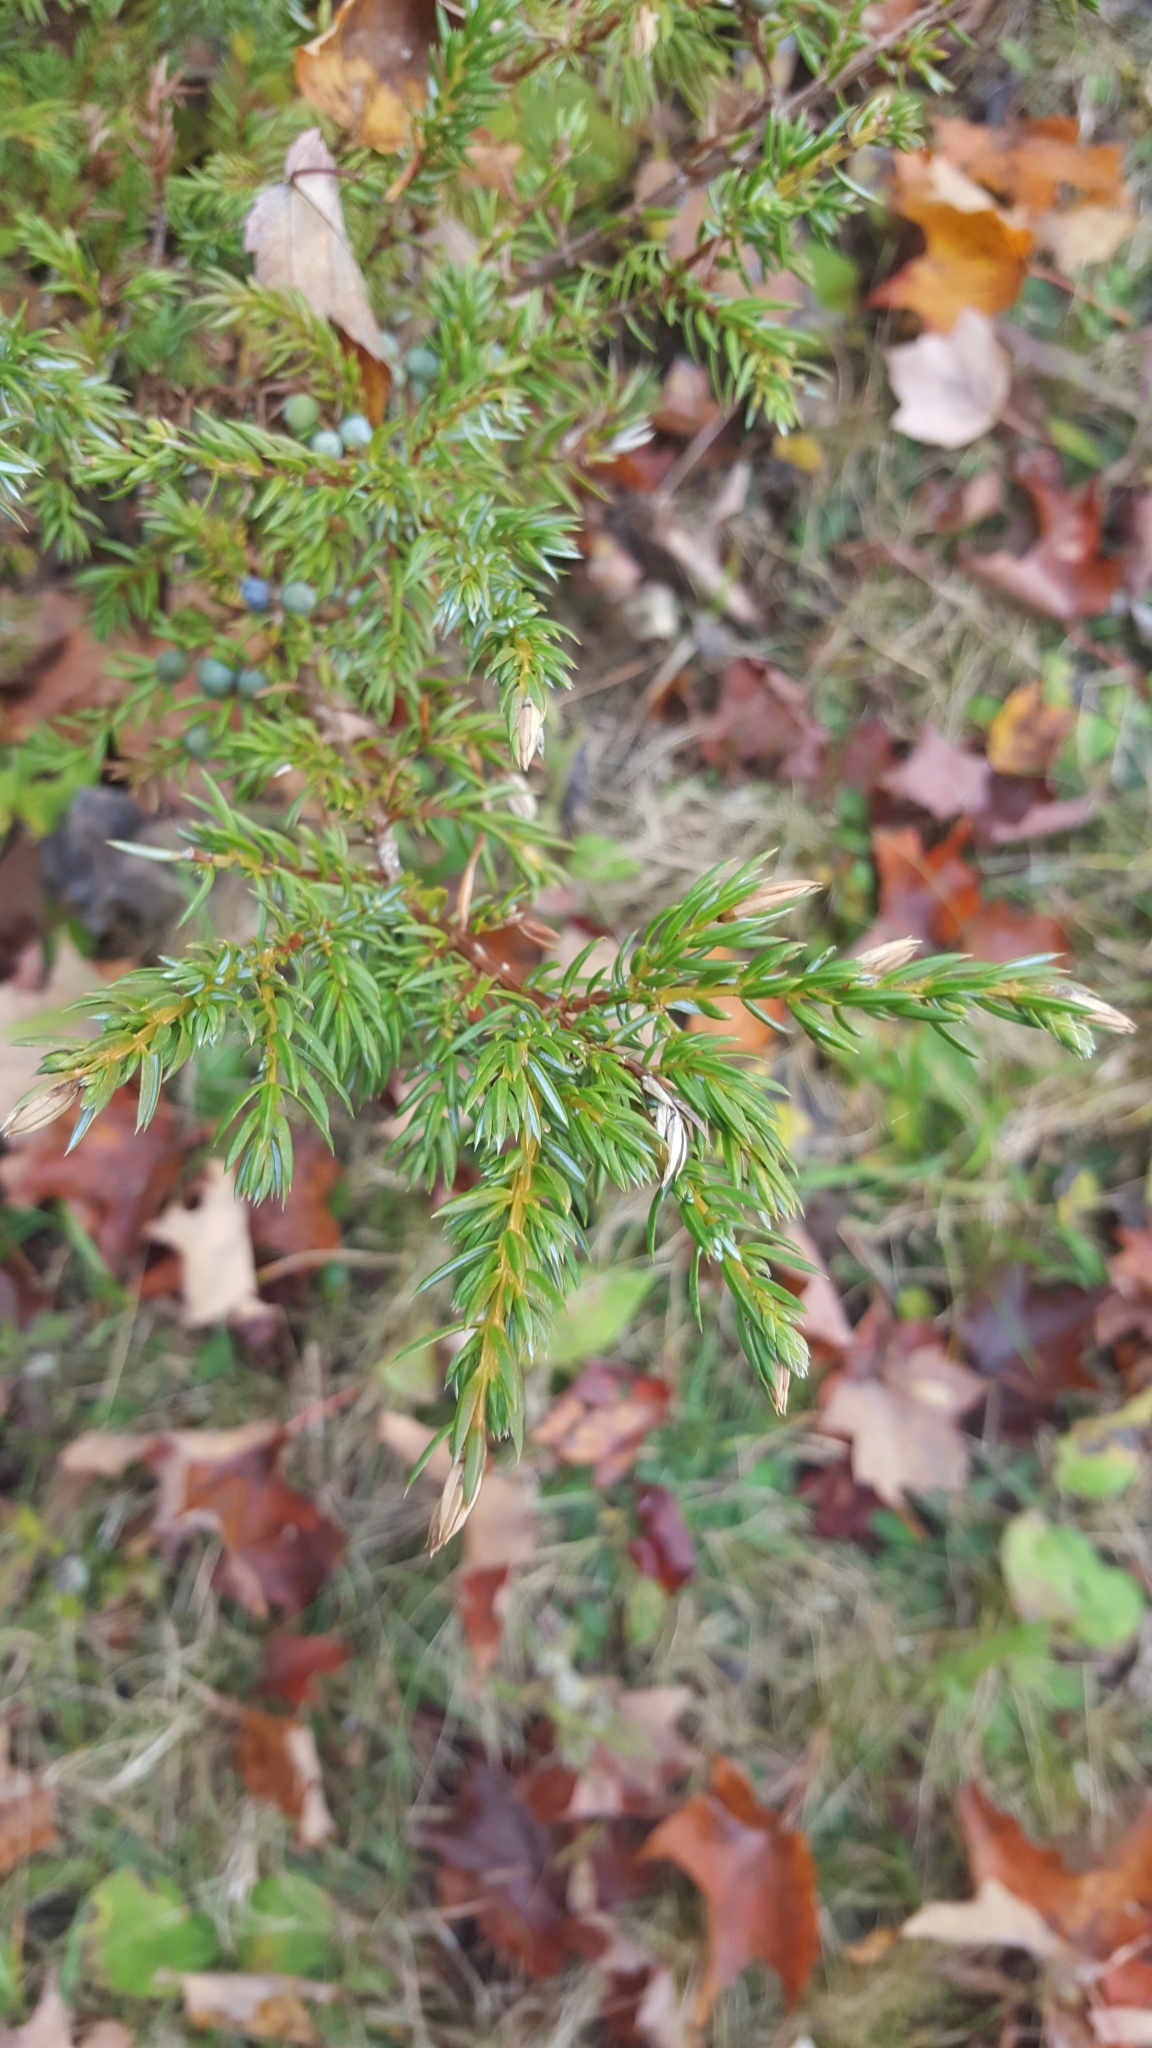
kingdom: Plantae
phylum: Tracheophyta
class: Pinopsida
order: Pinales
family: Cupressaceae
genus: Juniperus
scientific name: Juniperus communis
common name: Common juniper
